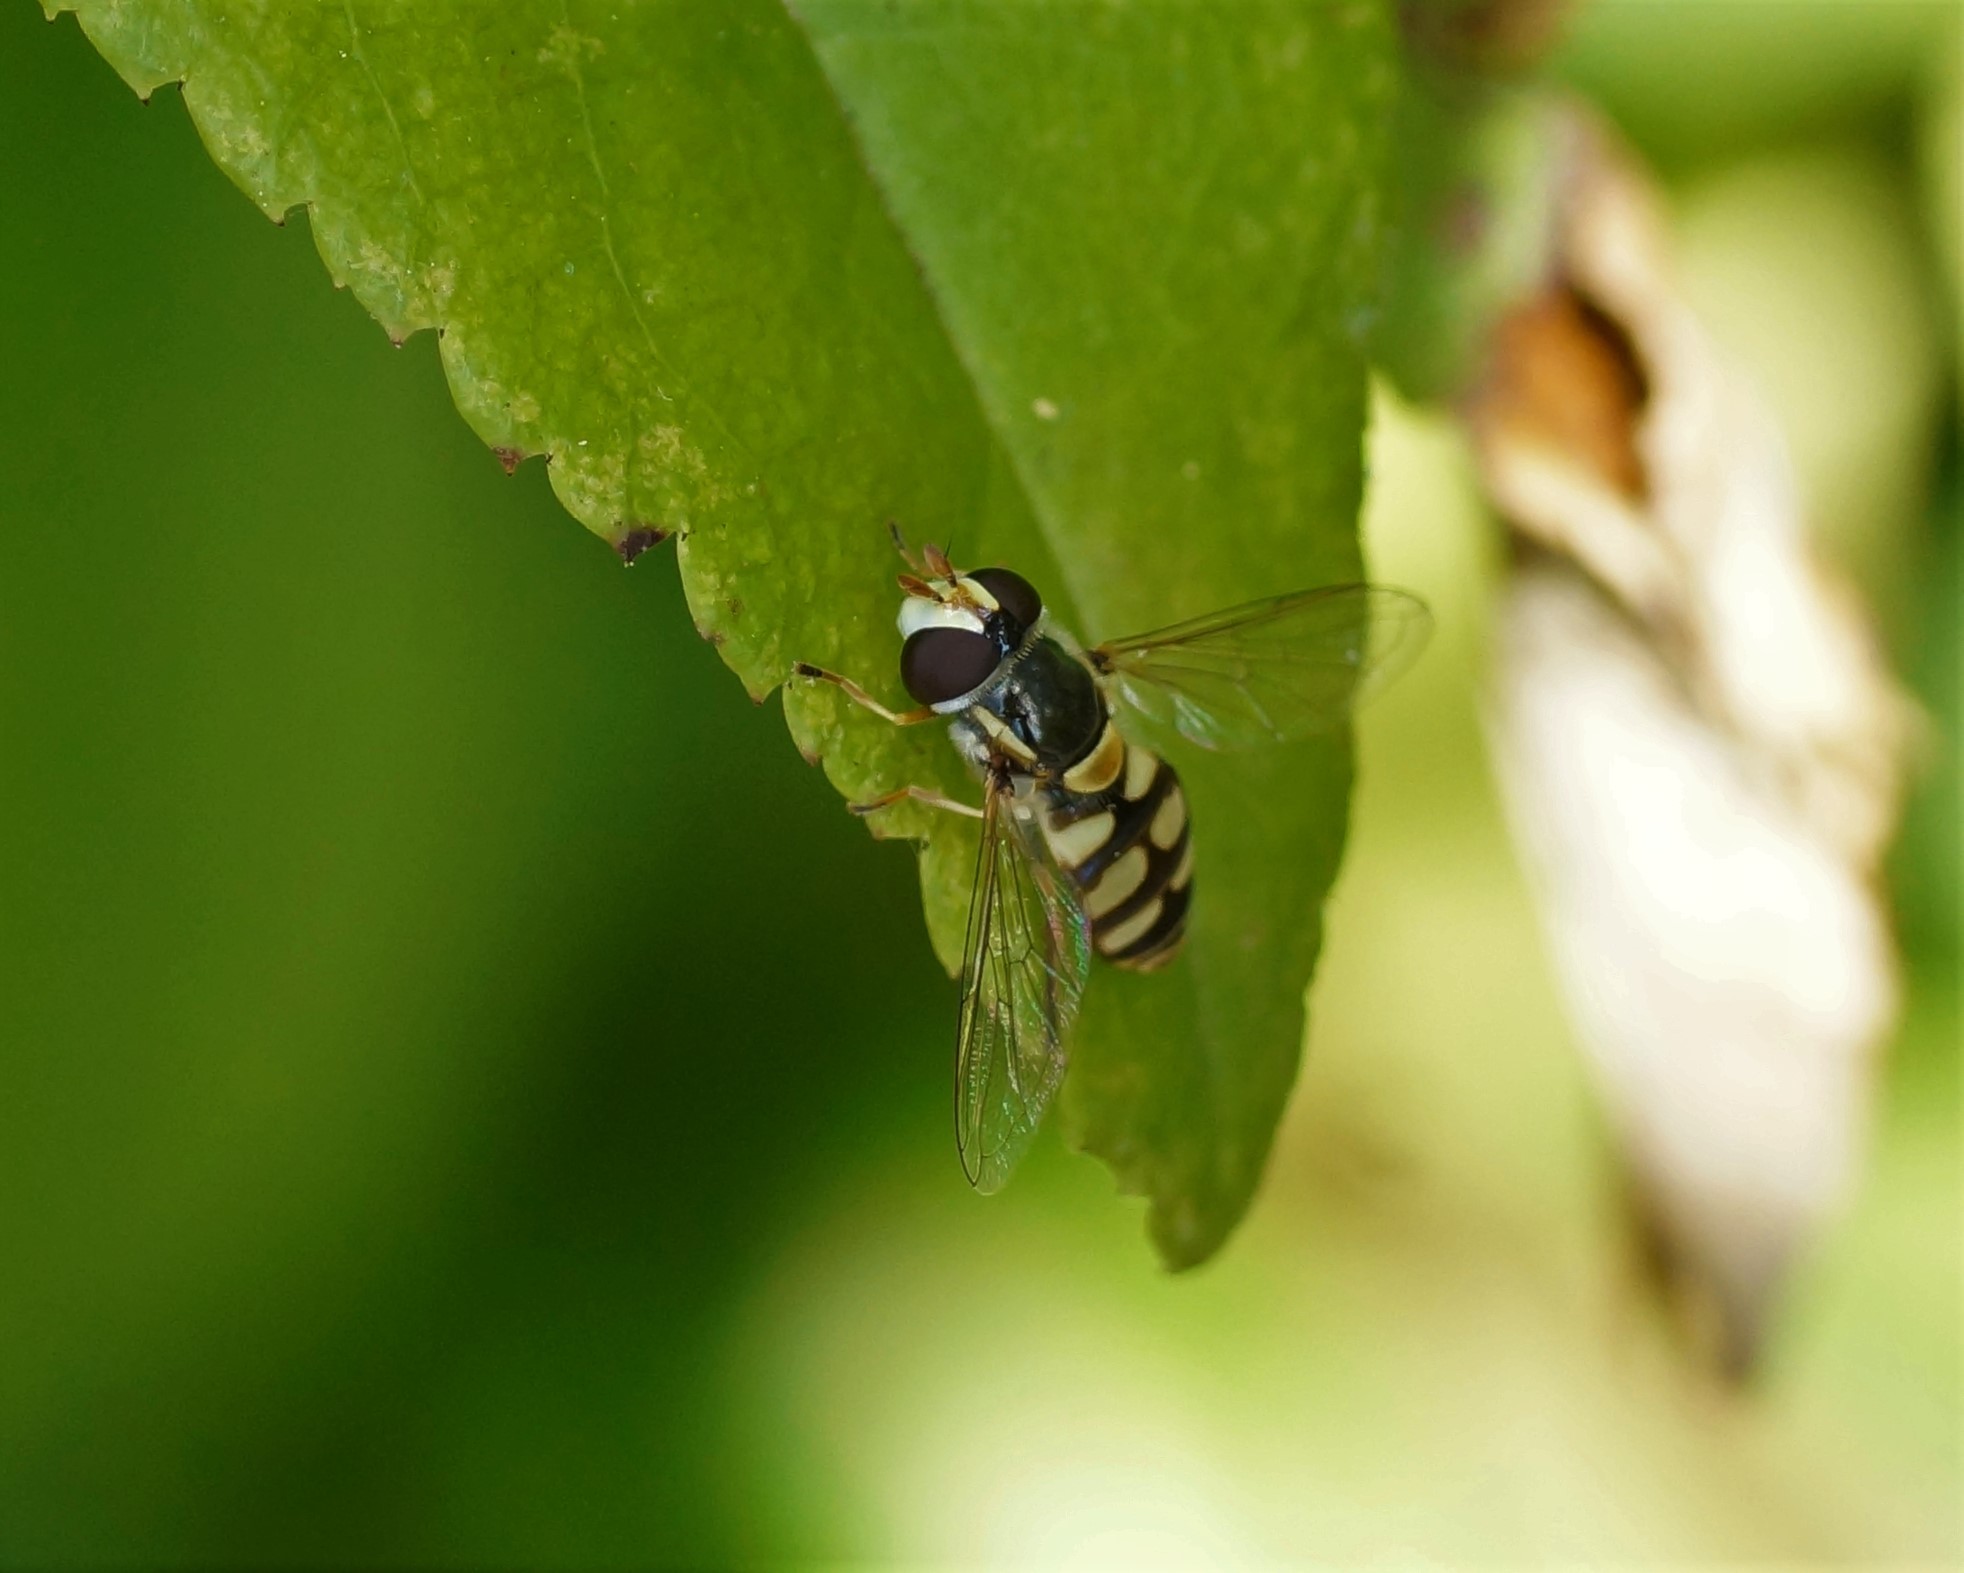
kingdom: Animalia
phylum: Arthropoda
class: Insecta
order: Diptera
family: Syrphidae
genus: Simosyrphus
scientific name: Simosyrphus grandicornis
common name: Hoverfly
